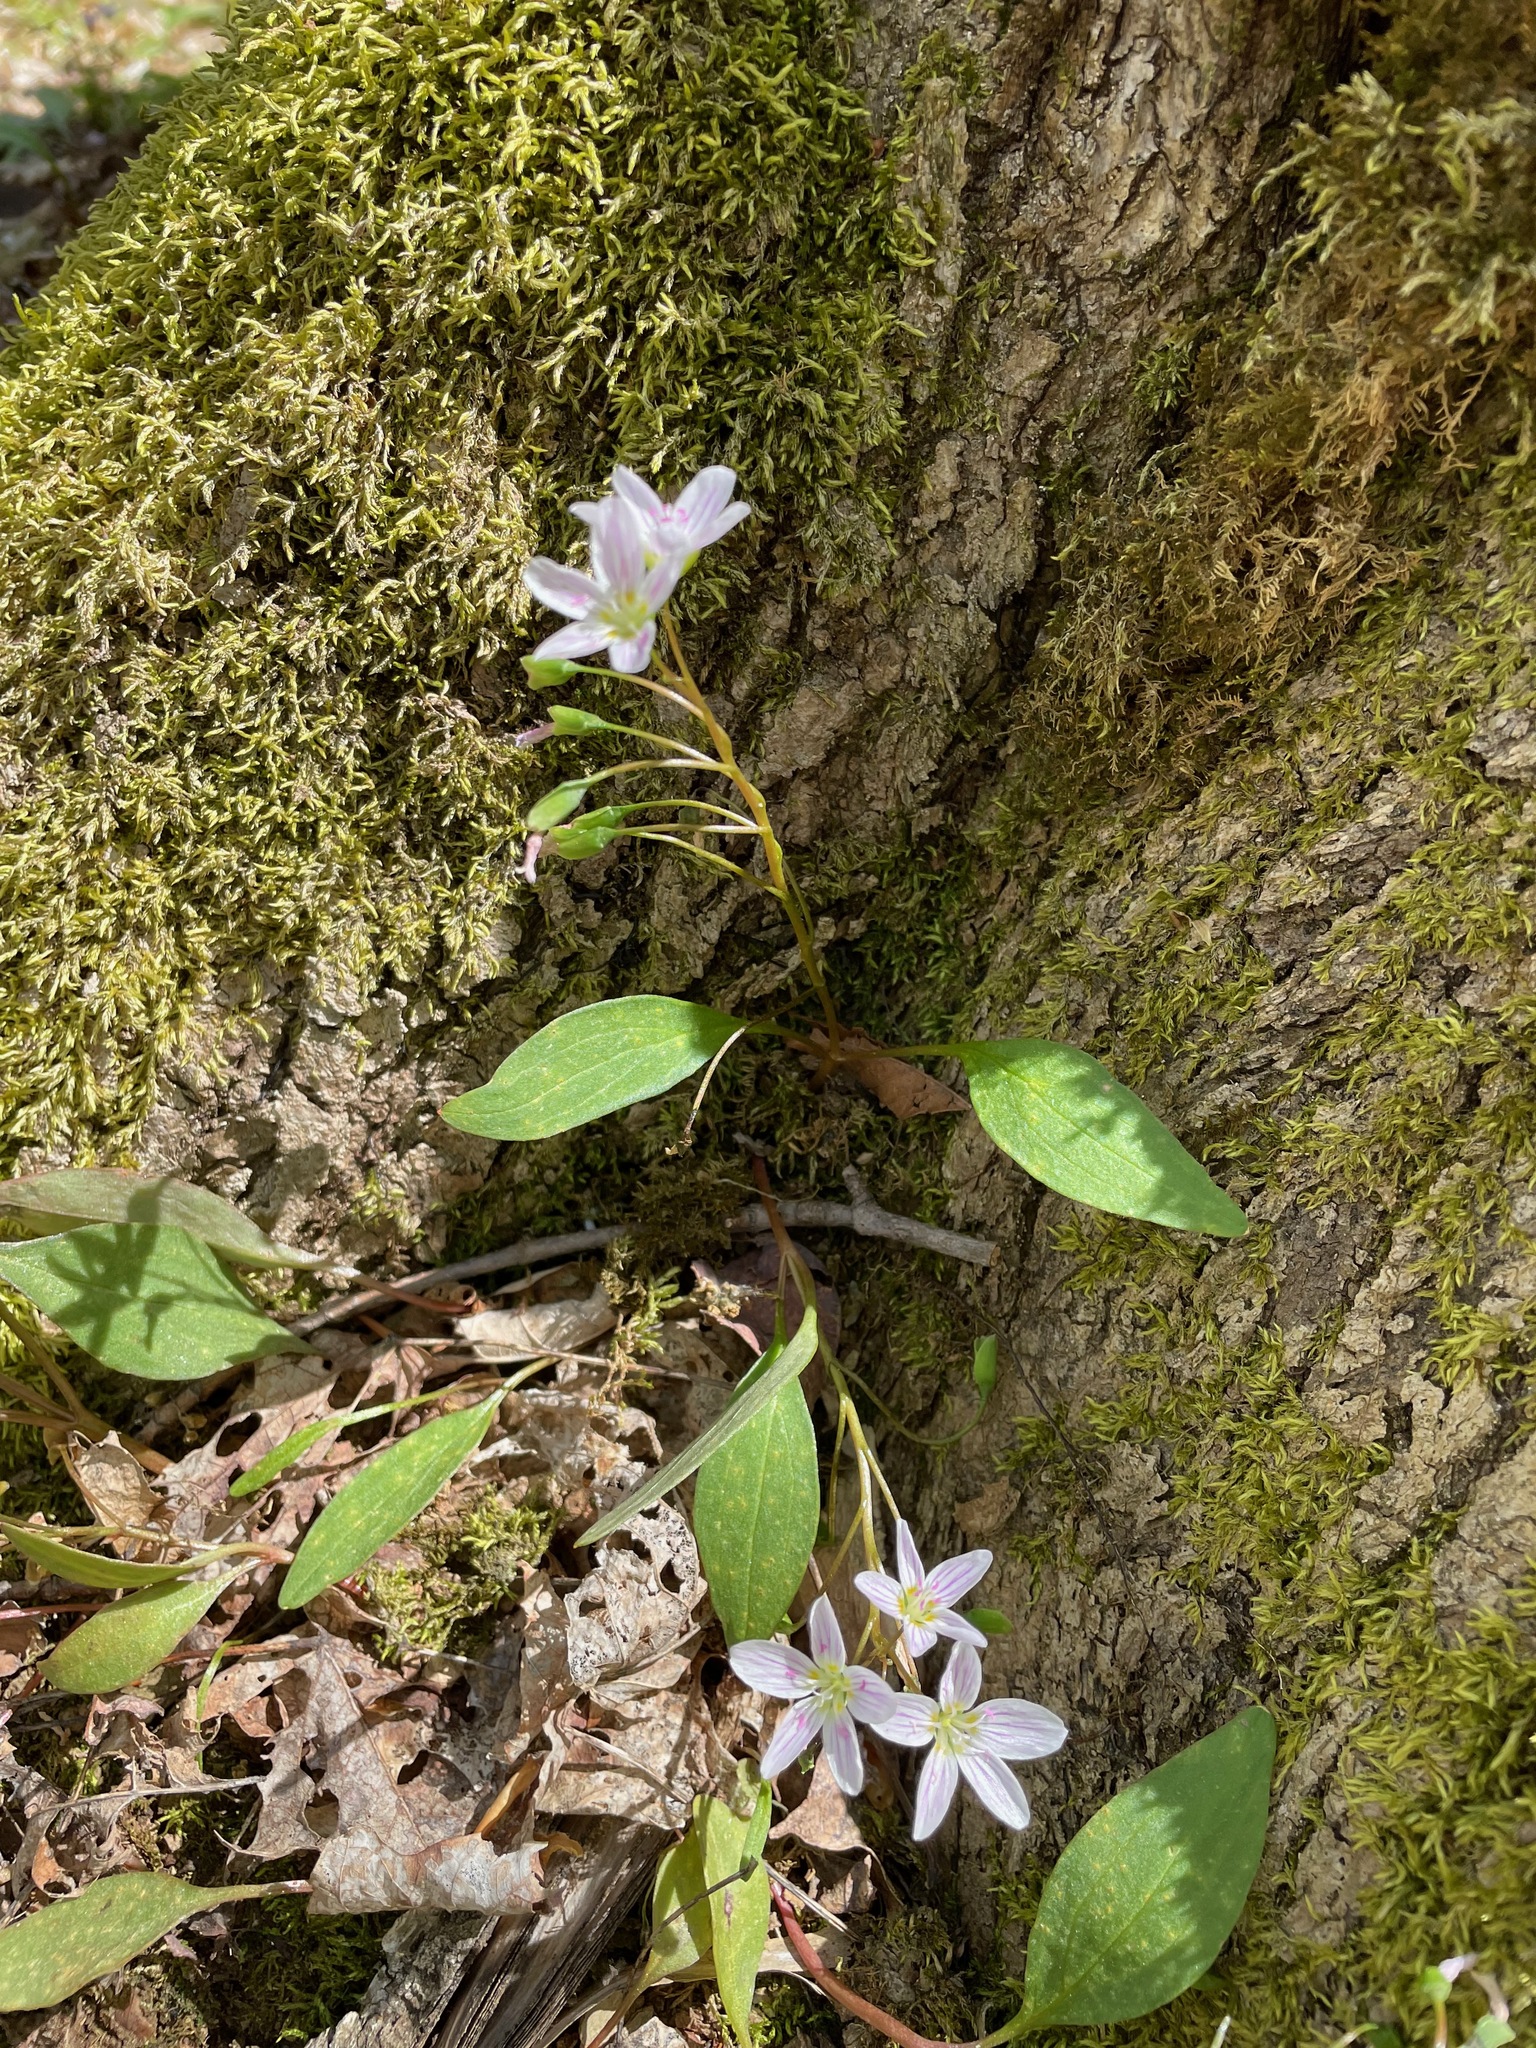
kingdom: Plantae
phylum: Tracheophyta
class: Magnoliopsida
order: Caryophyllales
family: Montiaceae
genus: Claytonia
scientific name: Claytonia caroliniana
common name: Carolina spring beauty
